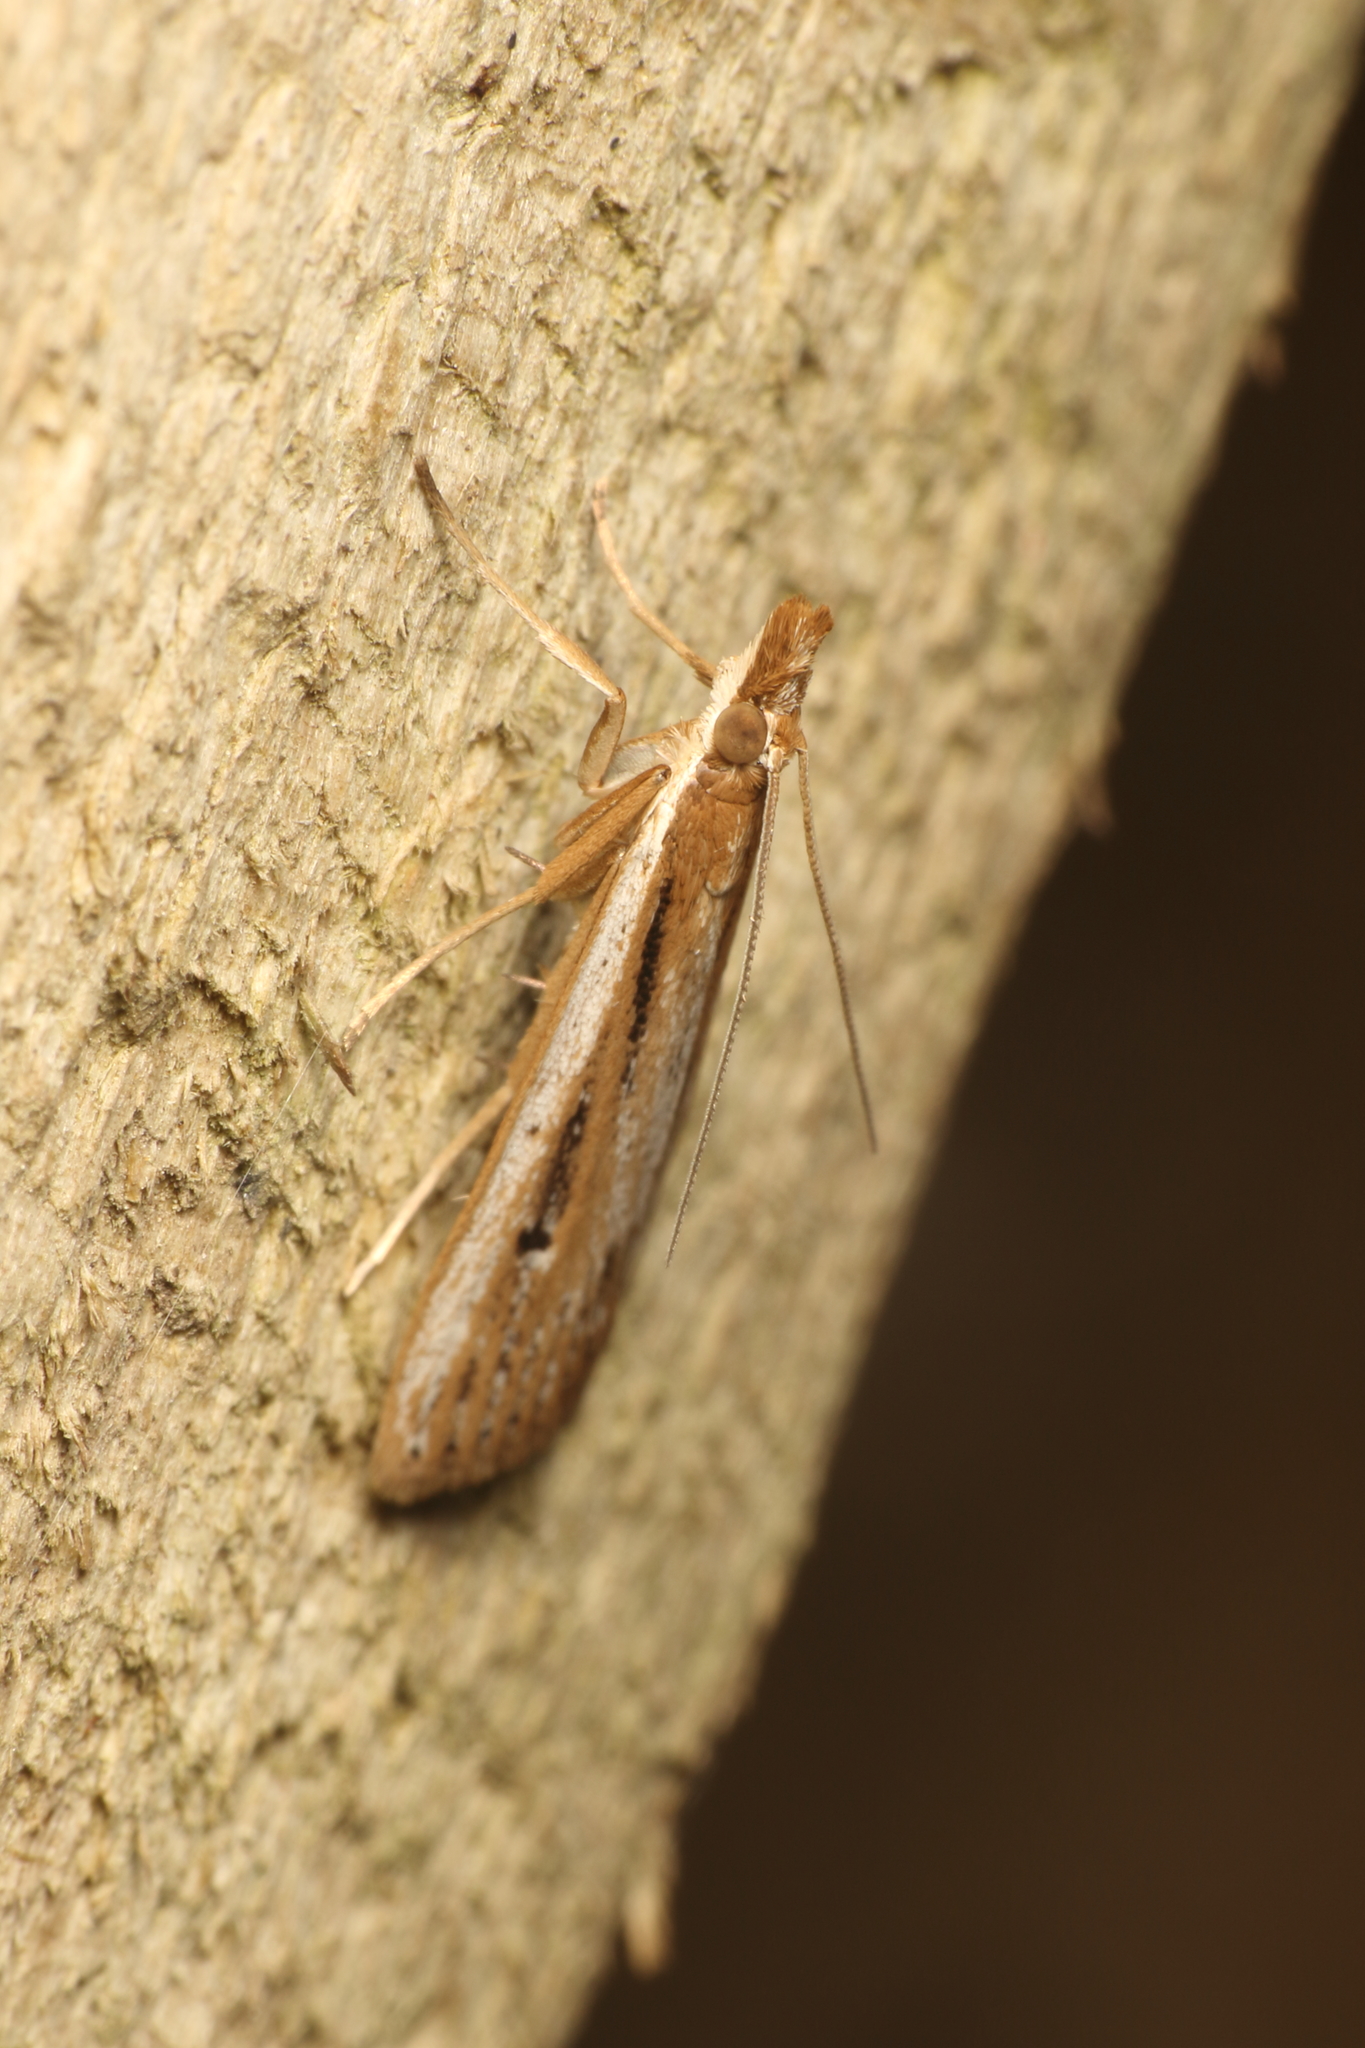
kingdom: Animalia
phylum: Arthropoda
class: Insecta
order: Lepidoptera
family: Crambidae
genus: Eudonia
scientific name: Eudonia sabulosella
